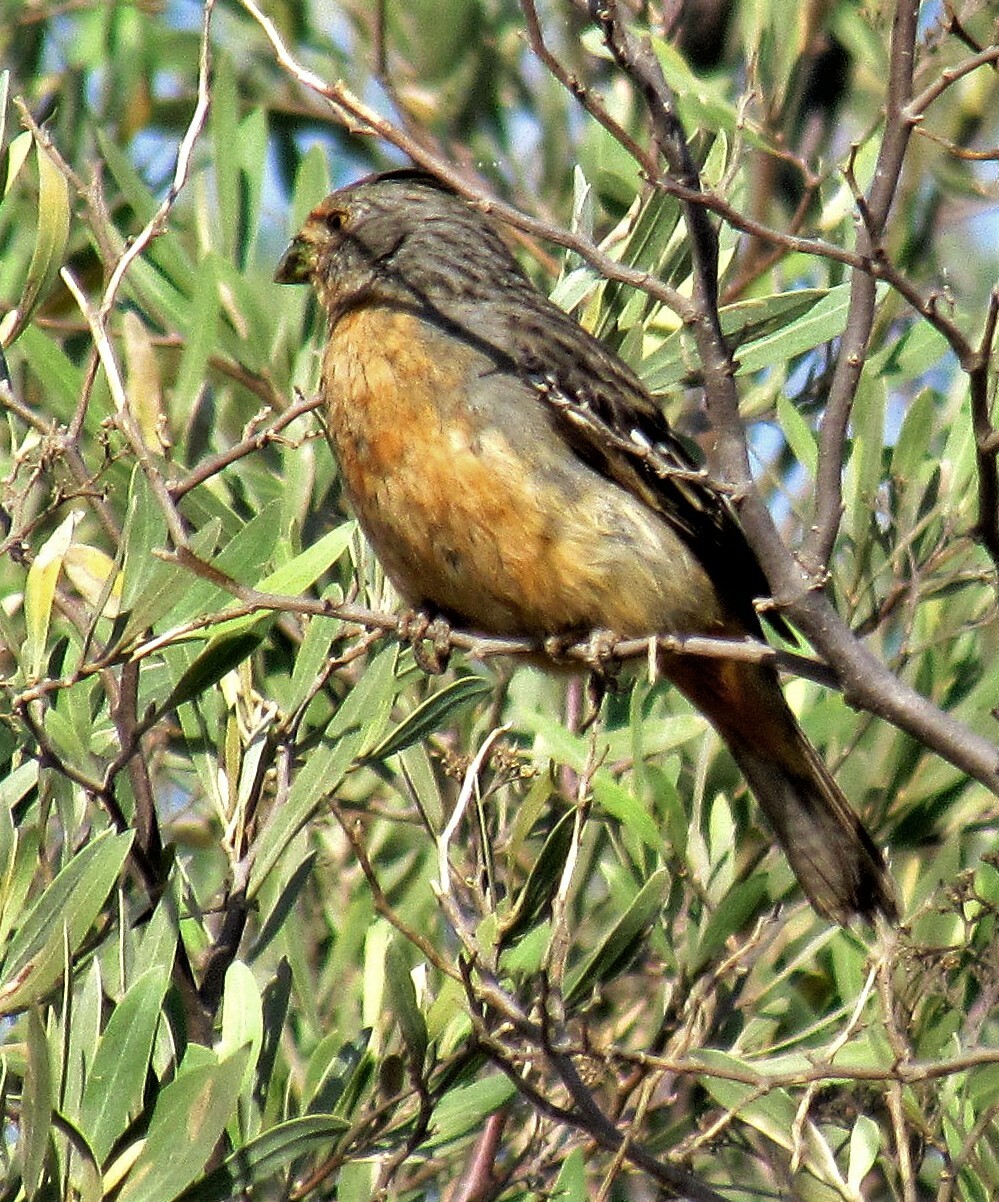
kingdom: Animalia
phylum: Chordata
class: Aves
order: Passeriformes
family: Cotingidae
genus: Phytotoma
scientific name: Phytotoma rutila
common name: White-tipped plantcutter
